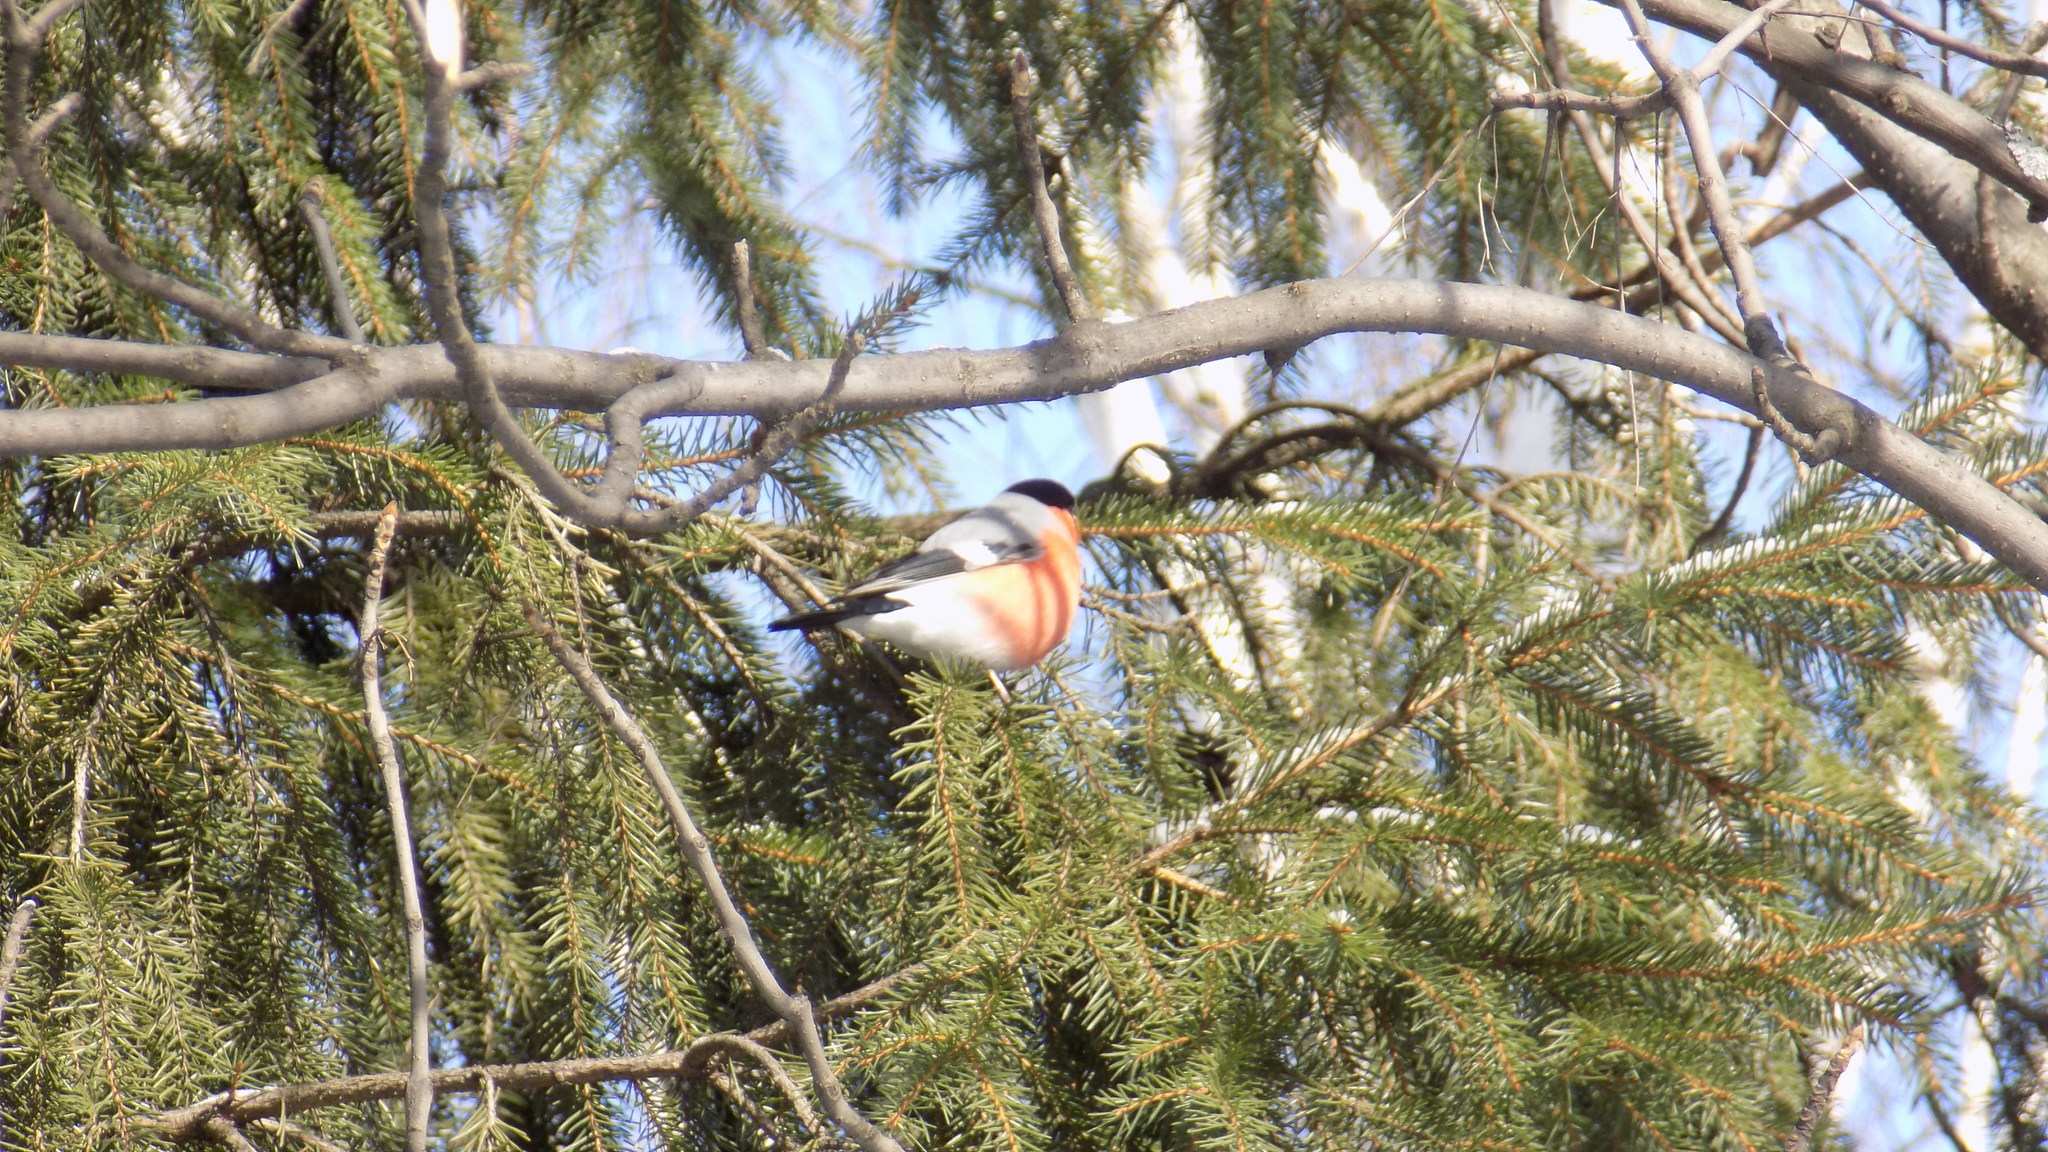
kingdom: Animalia
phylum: Chordata
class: Aves
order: Passeriformes
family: Fringillidae
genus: Pyrrhula
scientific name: Pyrrhula pyrrhula
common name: Eurasian bullfinch
